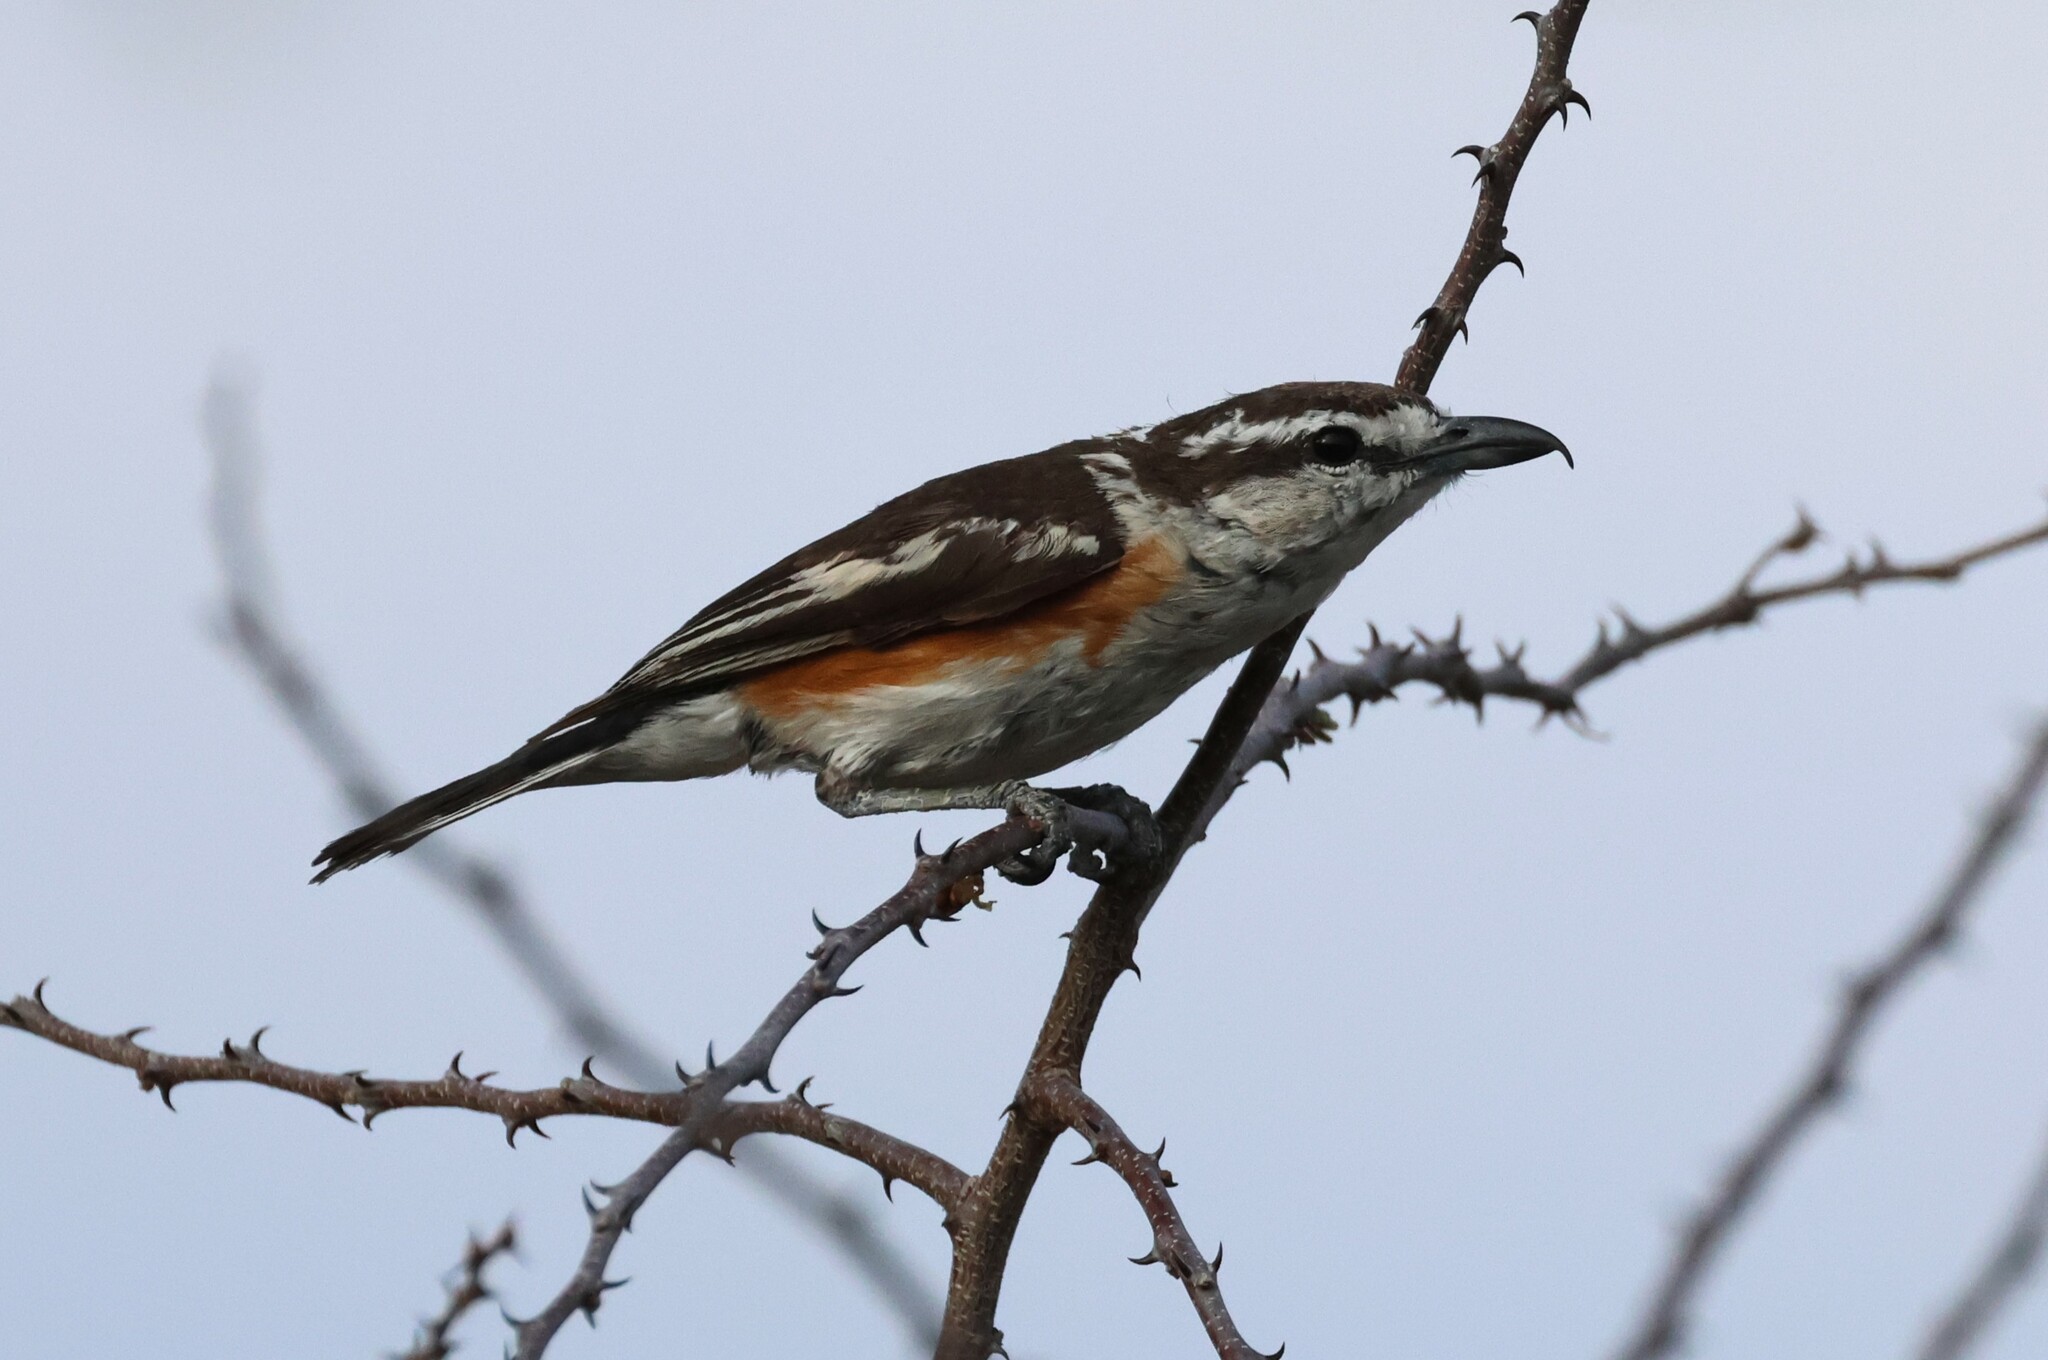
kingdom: Animalia
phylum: Chordata
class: Aves
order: Passeriformes
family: Malaconotidae
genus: Nilaus
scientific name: Nilaus afer
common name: Brubru
